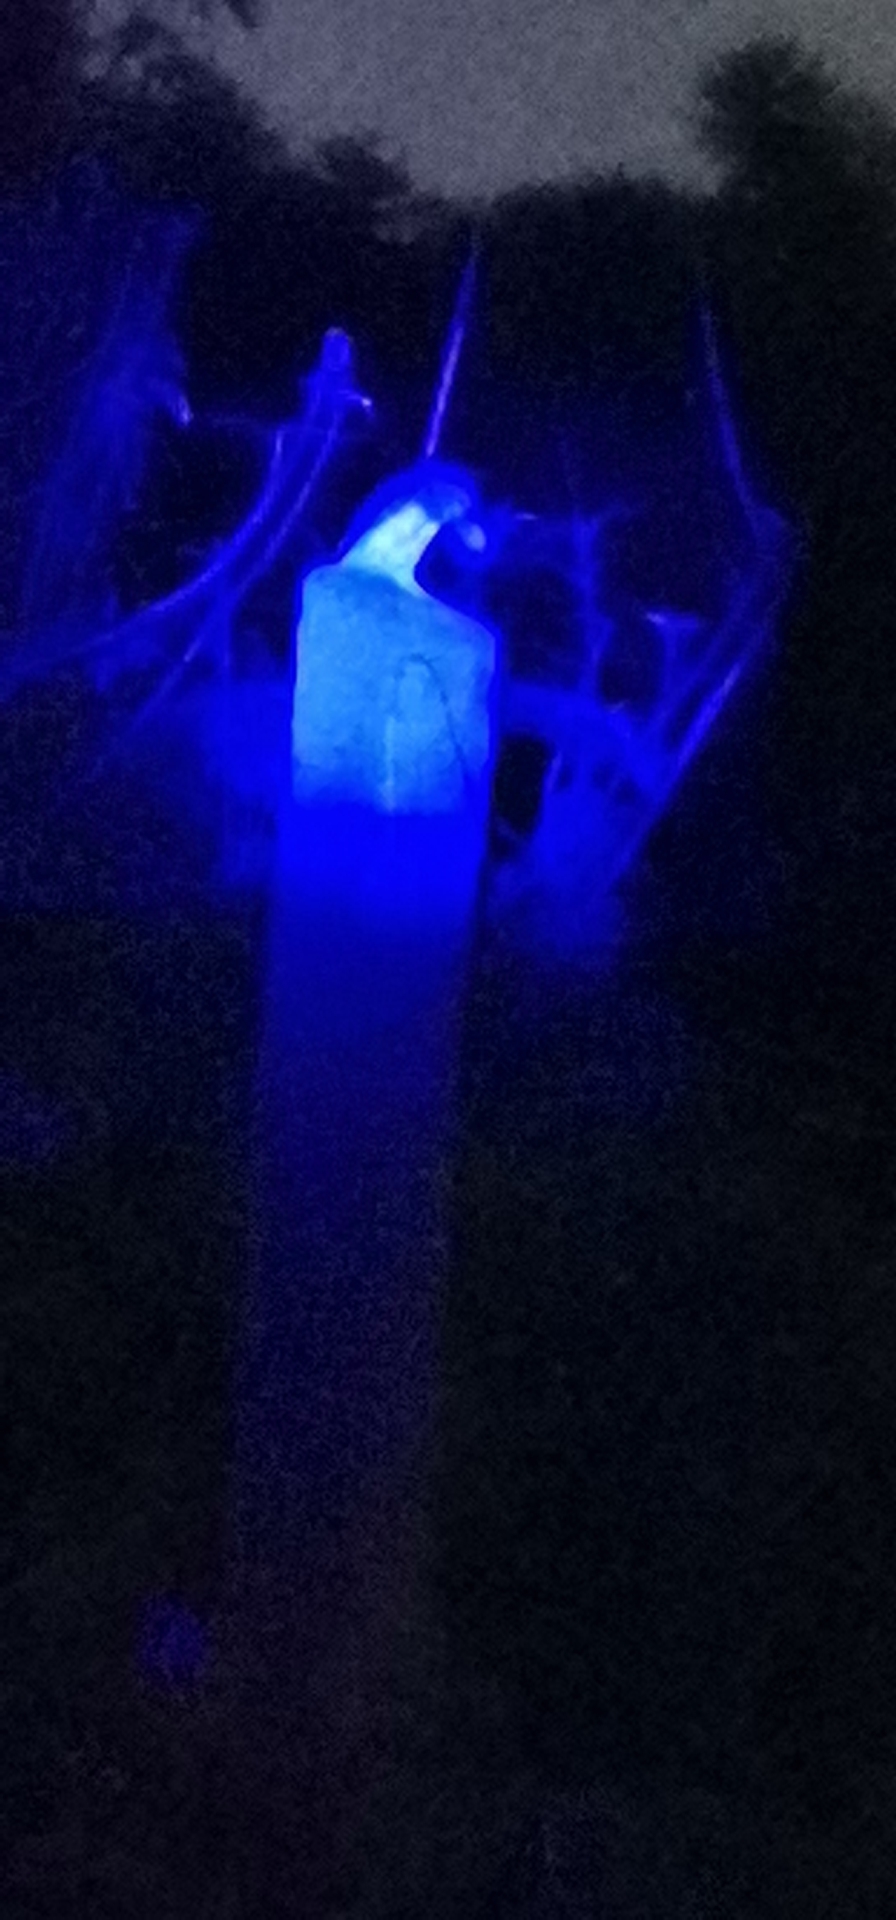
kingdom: Animalia
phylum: Chordata
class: Aves
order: Strigiformes
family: Strigidae
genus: Glaucidium
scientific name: Glaucidium brasilianum
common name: Ferruginous pygmy-owl
